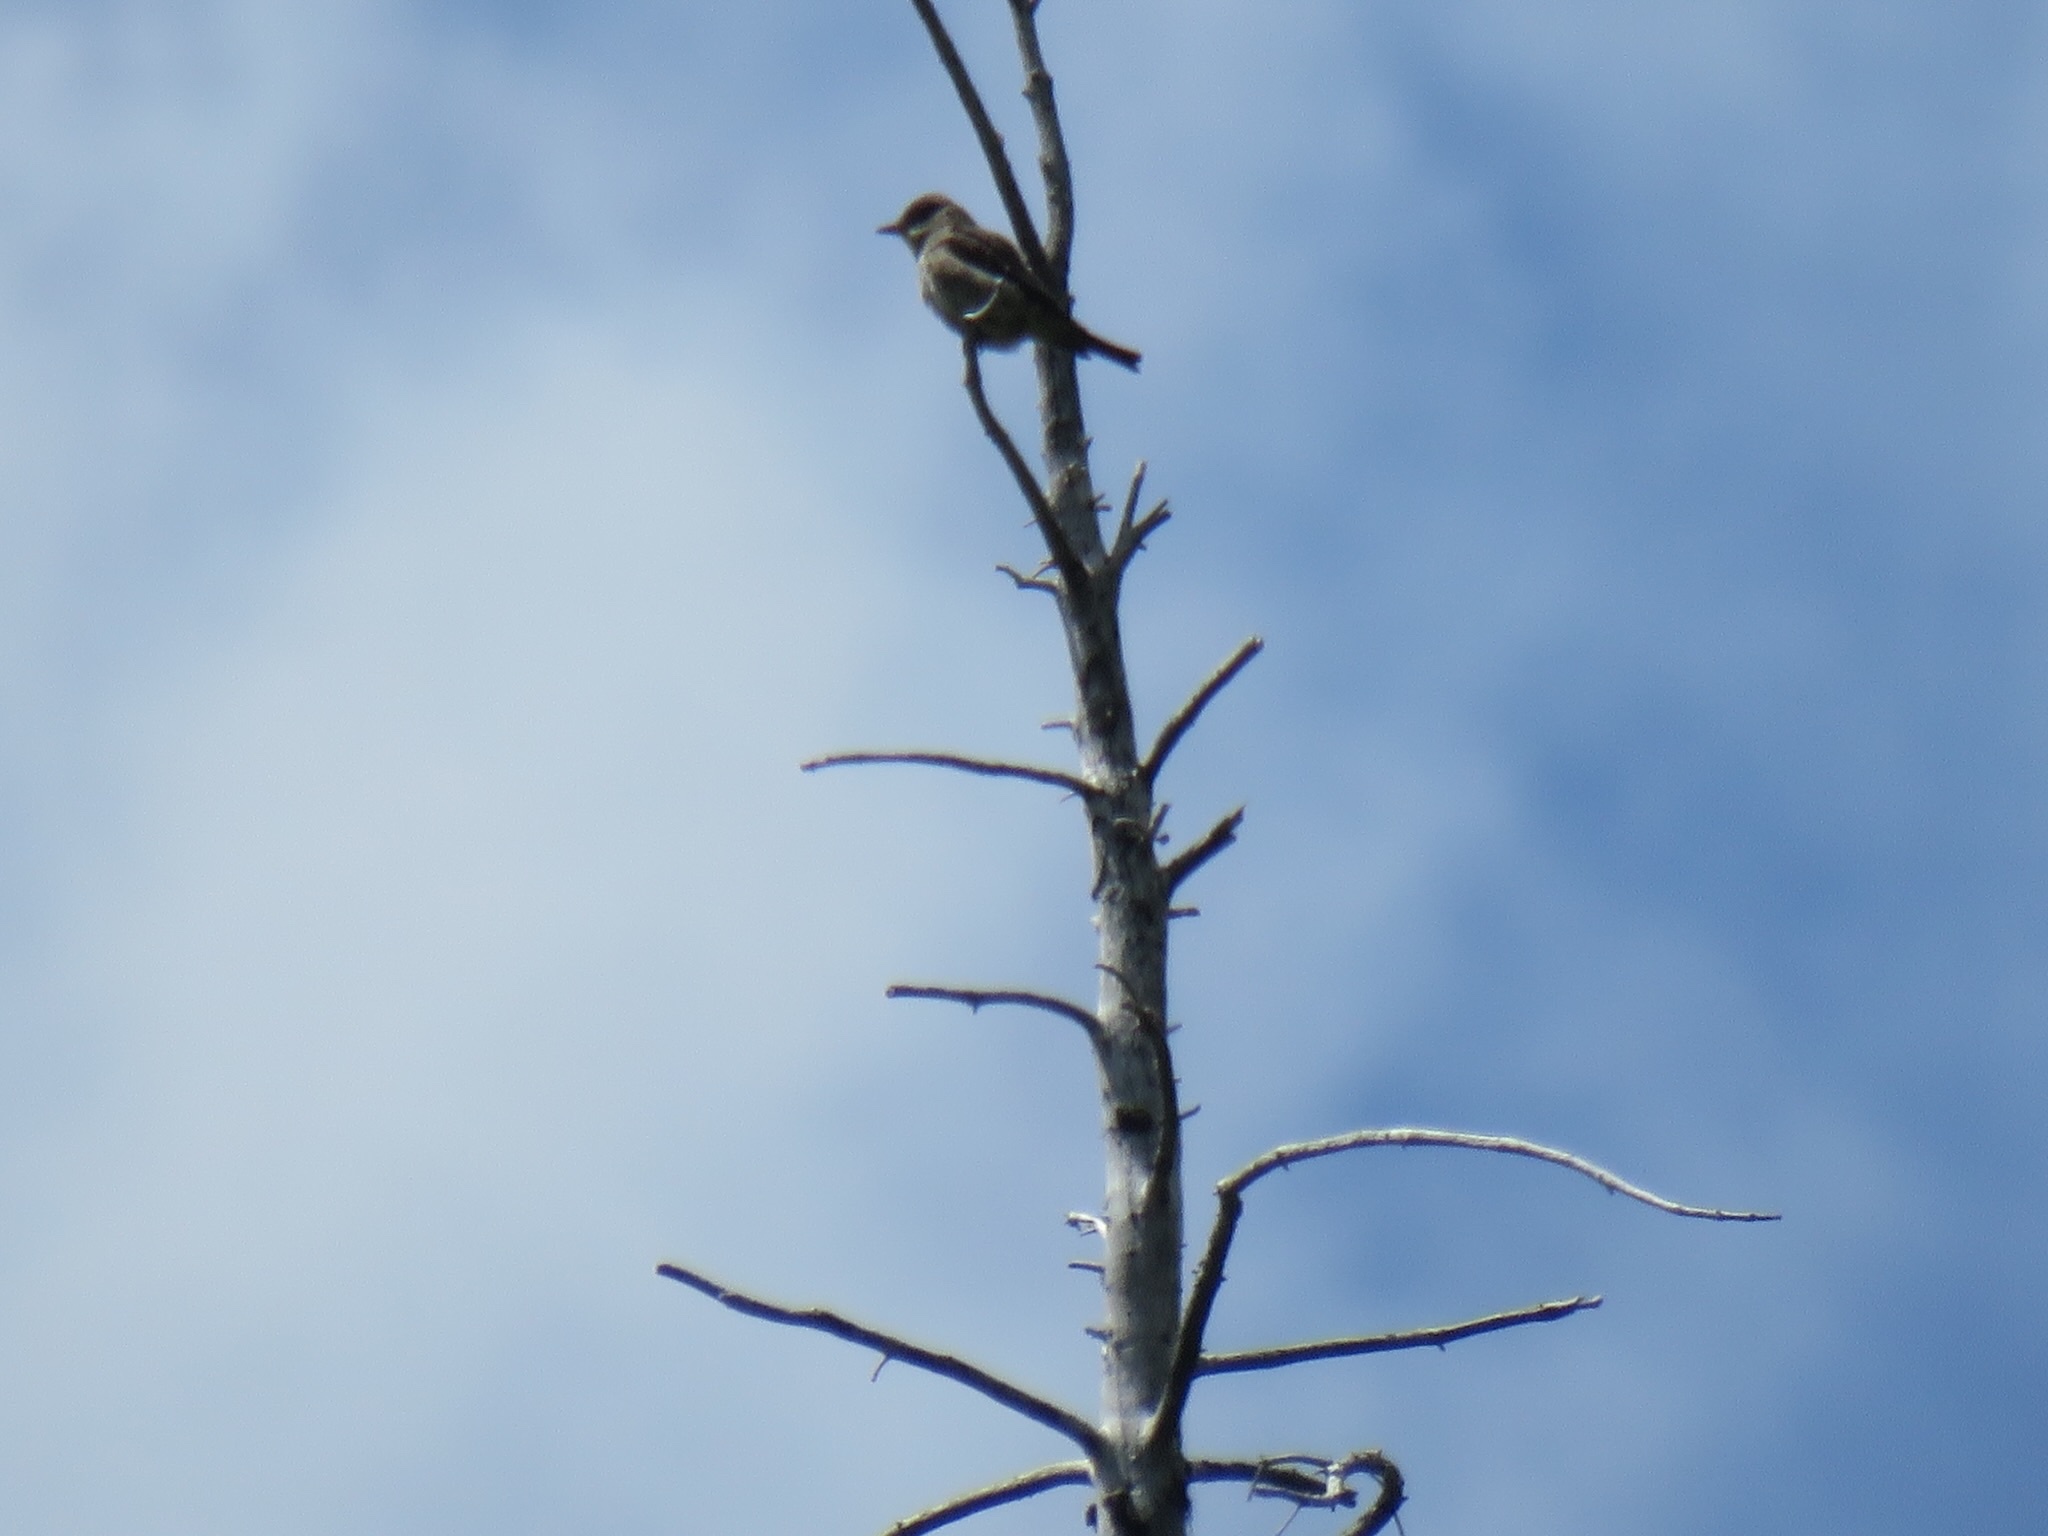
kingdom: Animalia
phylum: Chordata
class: Aves
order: Passeriformes
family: Tyrannidae
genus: Contopus
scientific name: Contopus cooperi
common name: Olive-sided flycatcher
